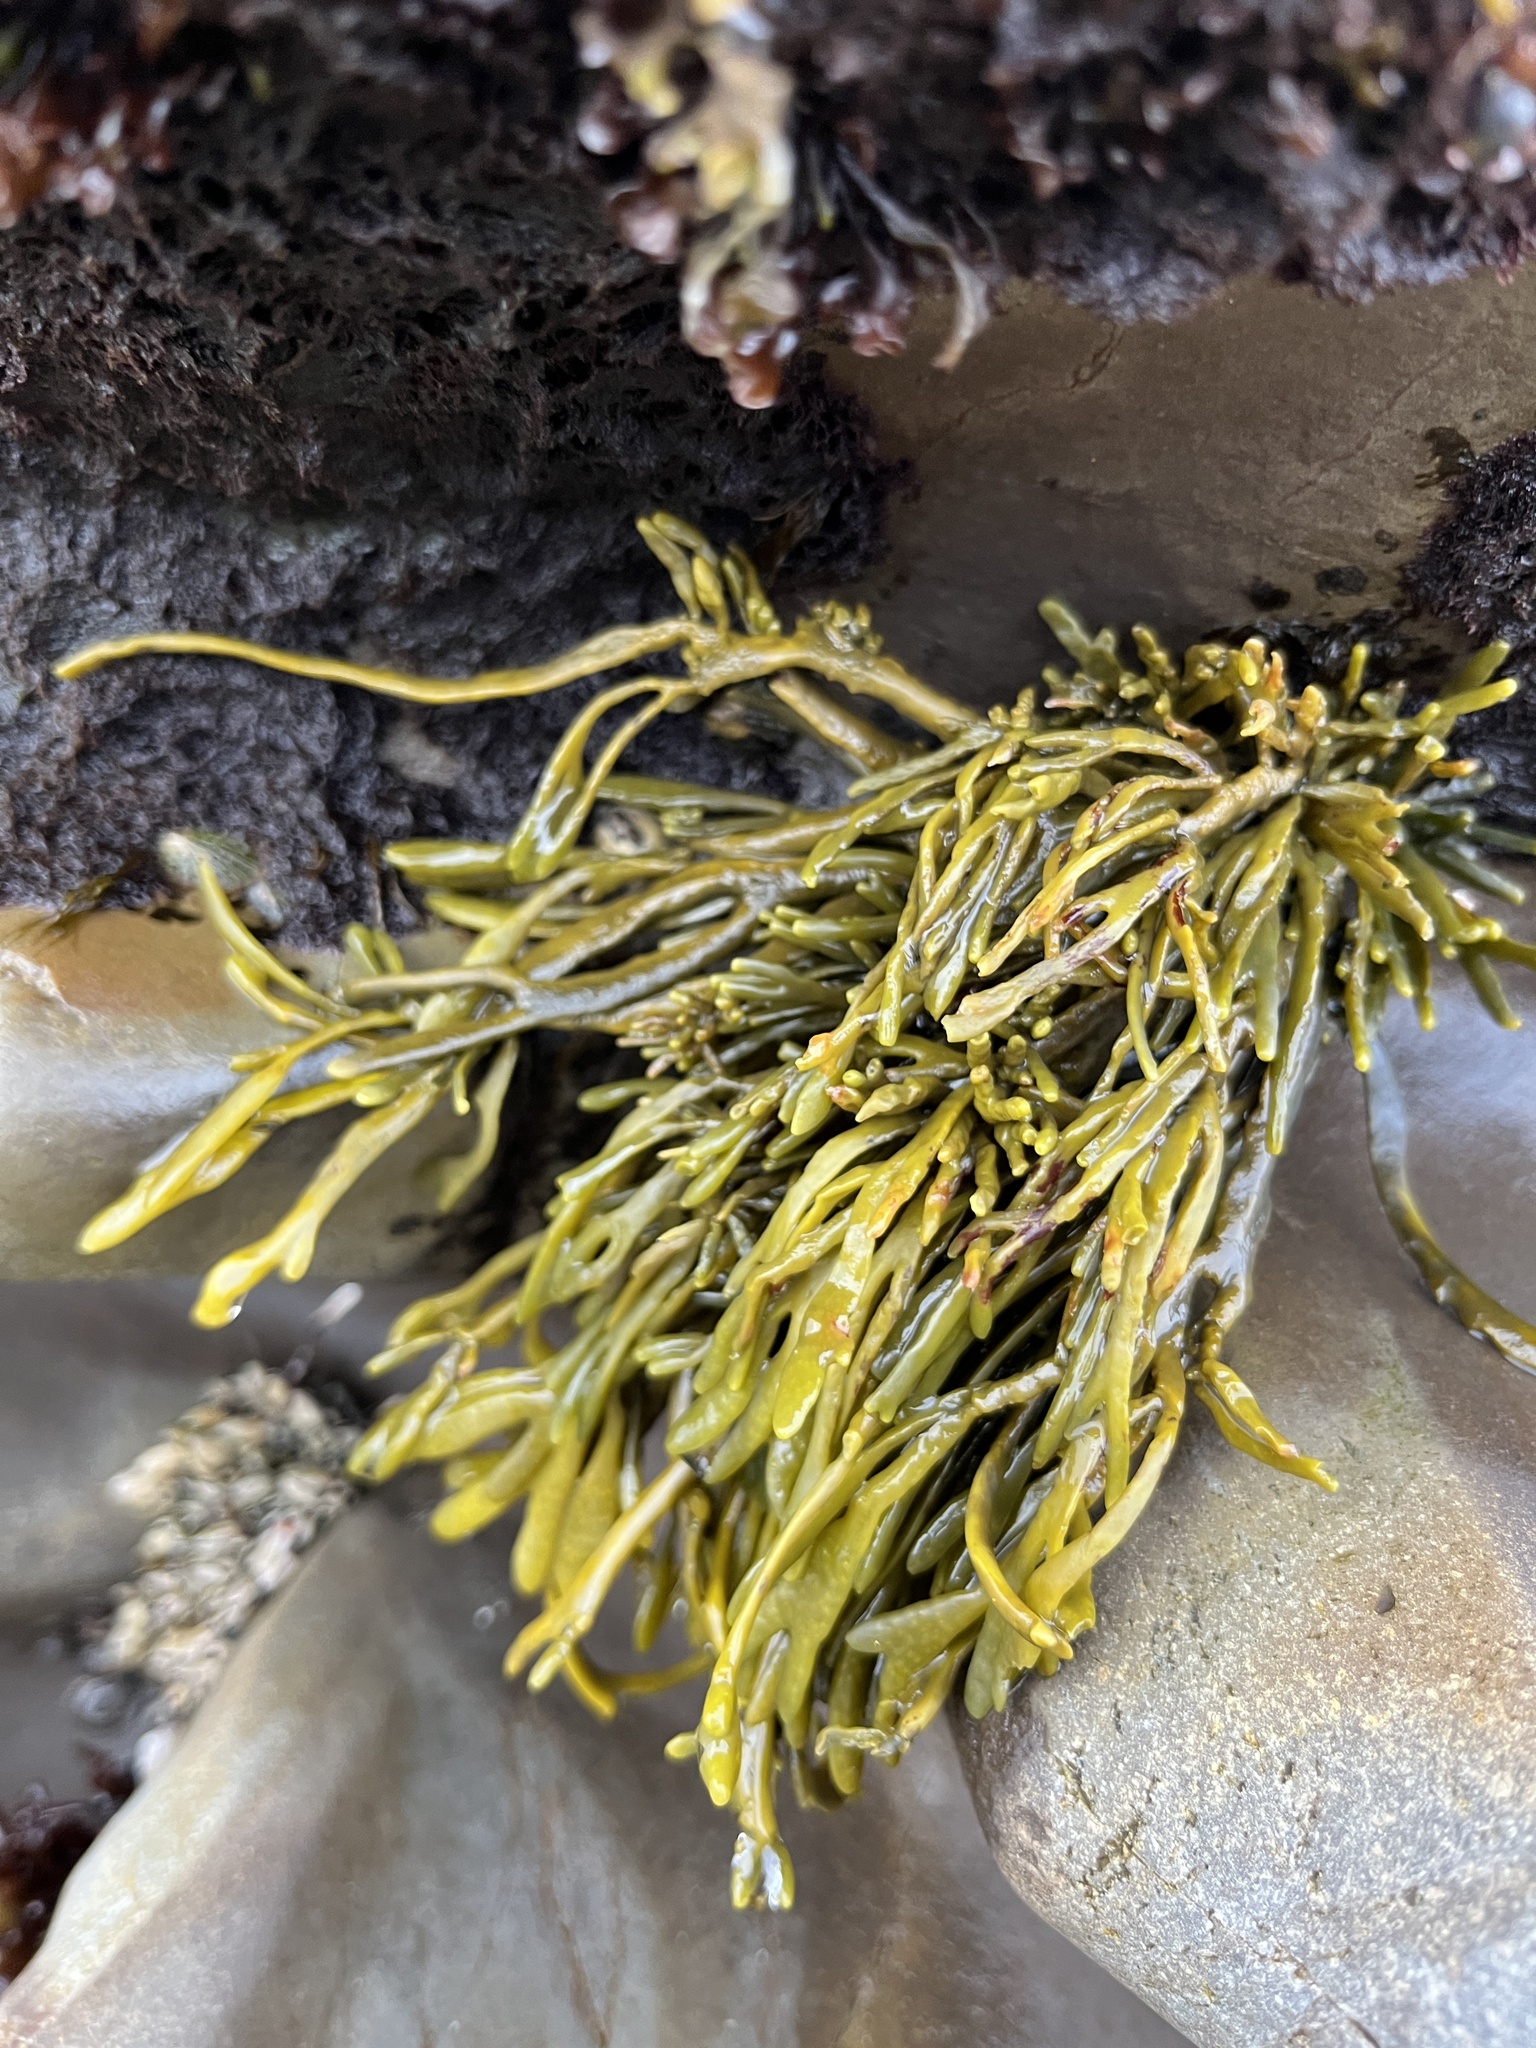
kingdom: Chromista
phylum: Ochrophyta
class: Phaeophyceae
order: Fucales
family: Fucaceae
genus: Silvetia
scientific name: Silvetia
